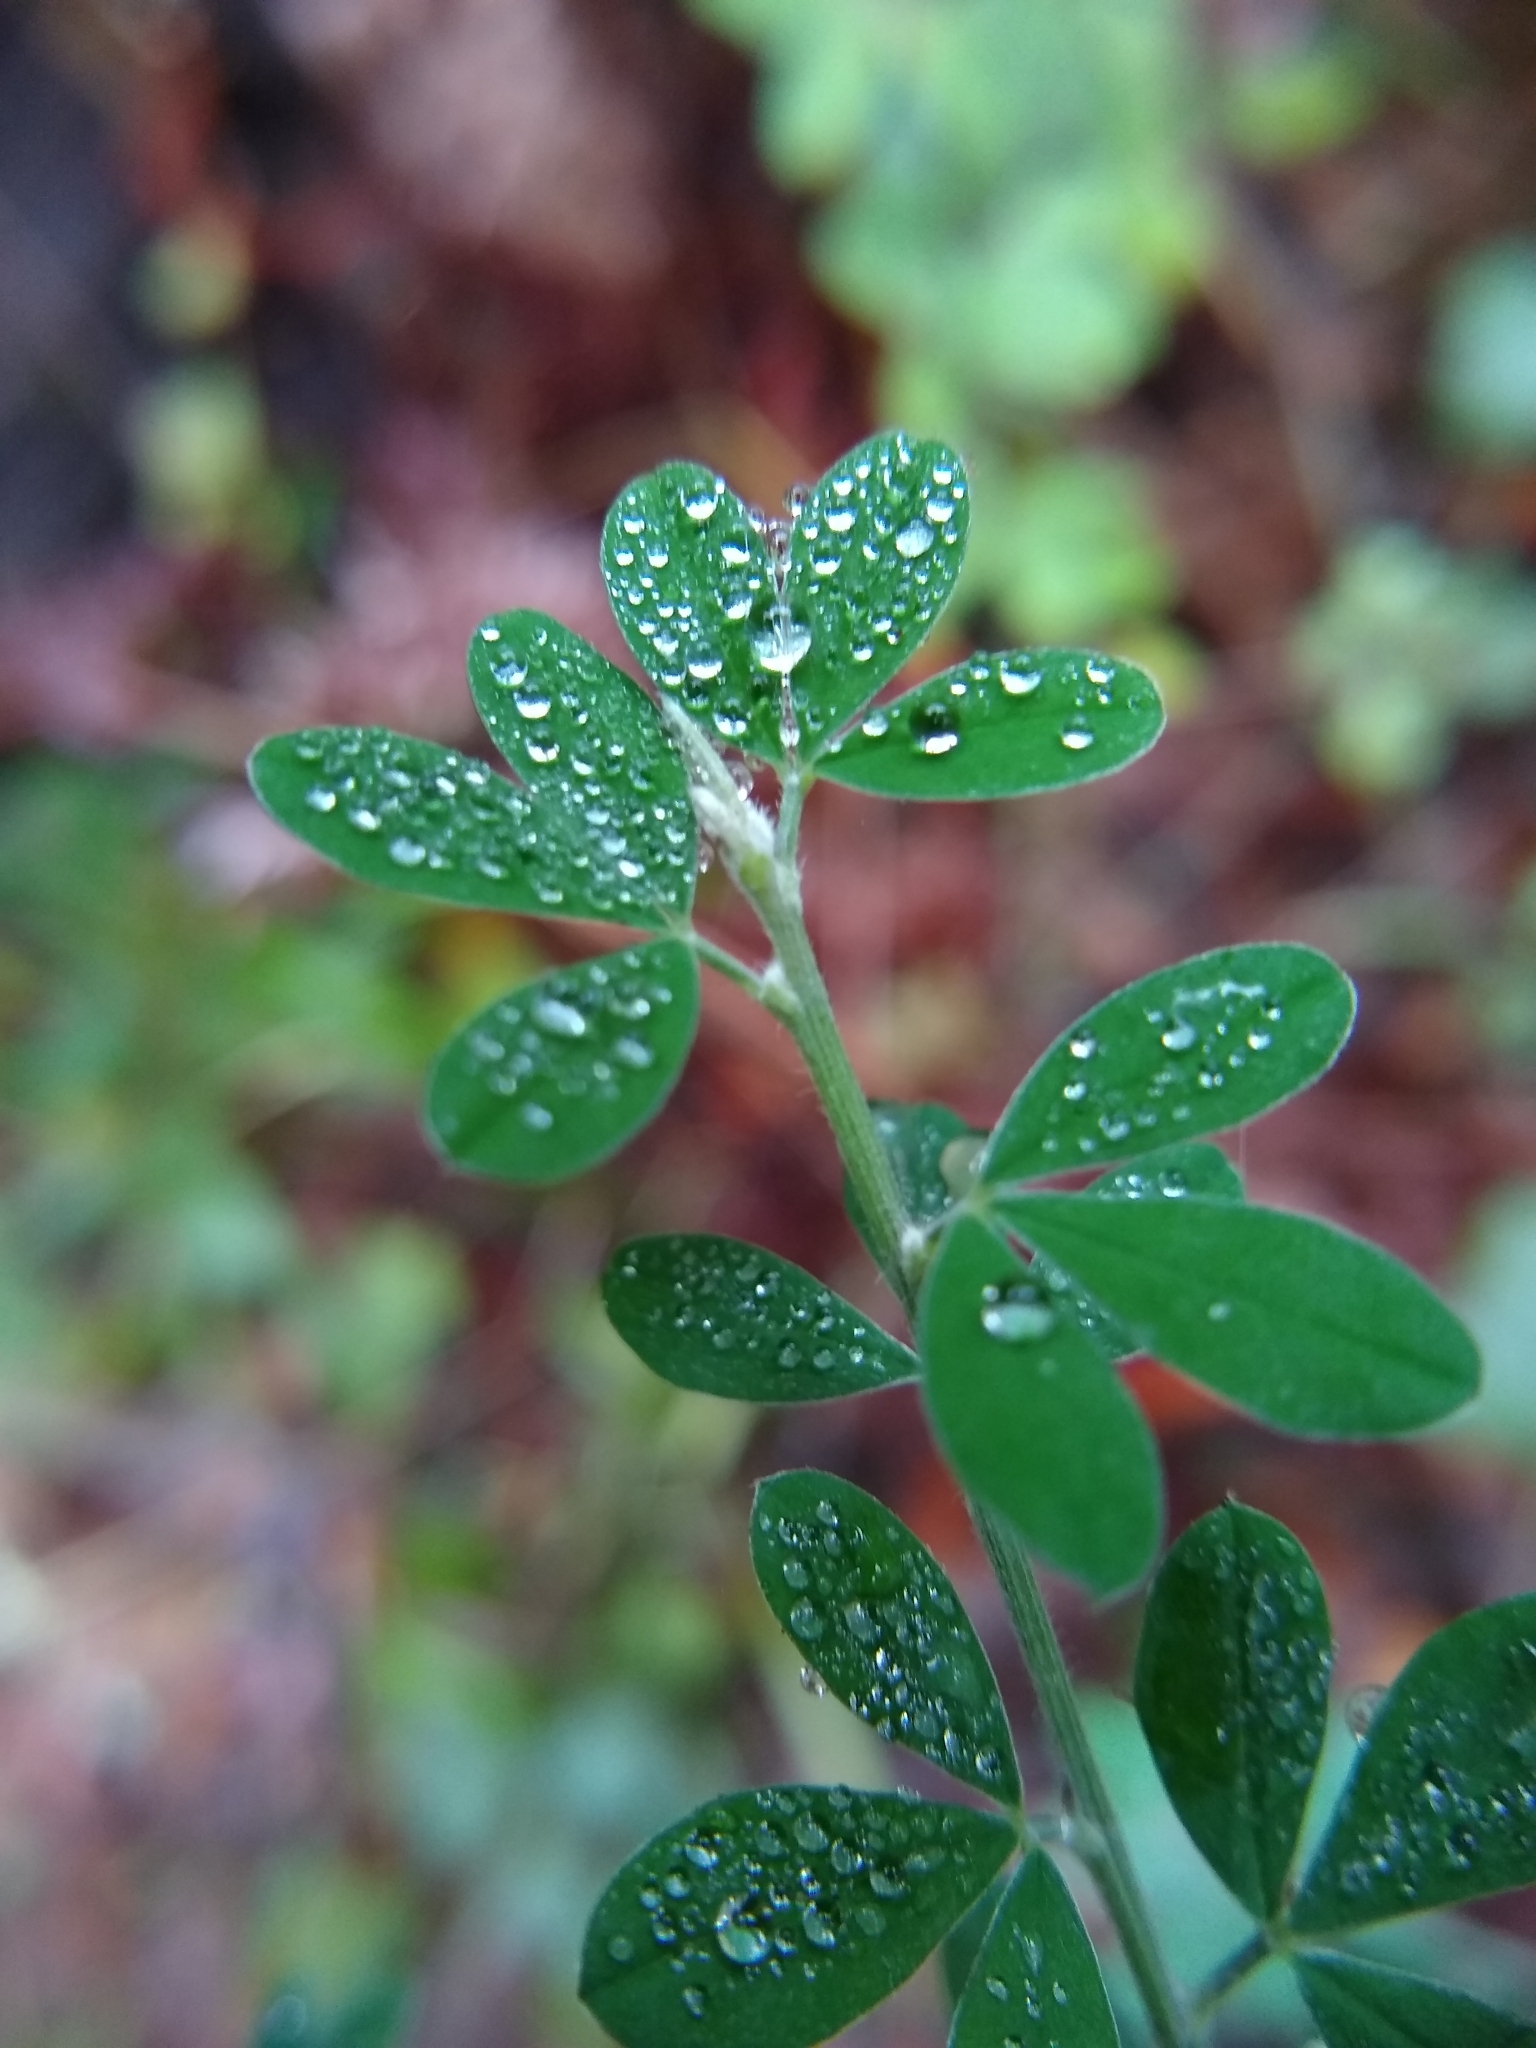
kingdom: Plantae
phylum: Tracheophyta
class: Magnoliopsida
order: Fabales
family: Fabaceae
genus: Genista
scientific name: Genista monspessulana
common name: Montpellier broom
